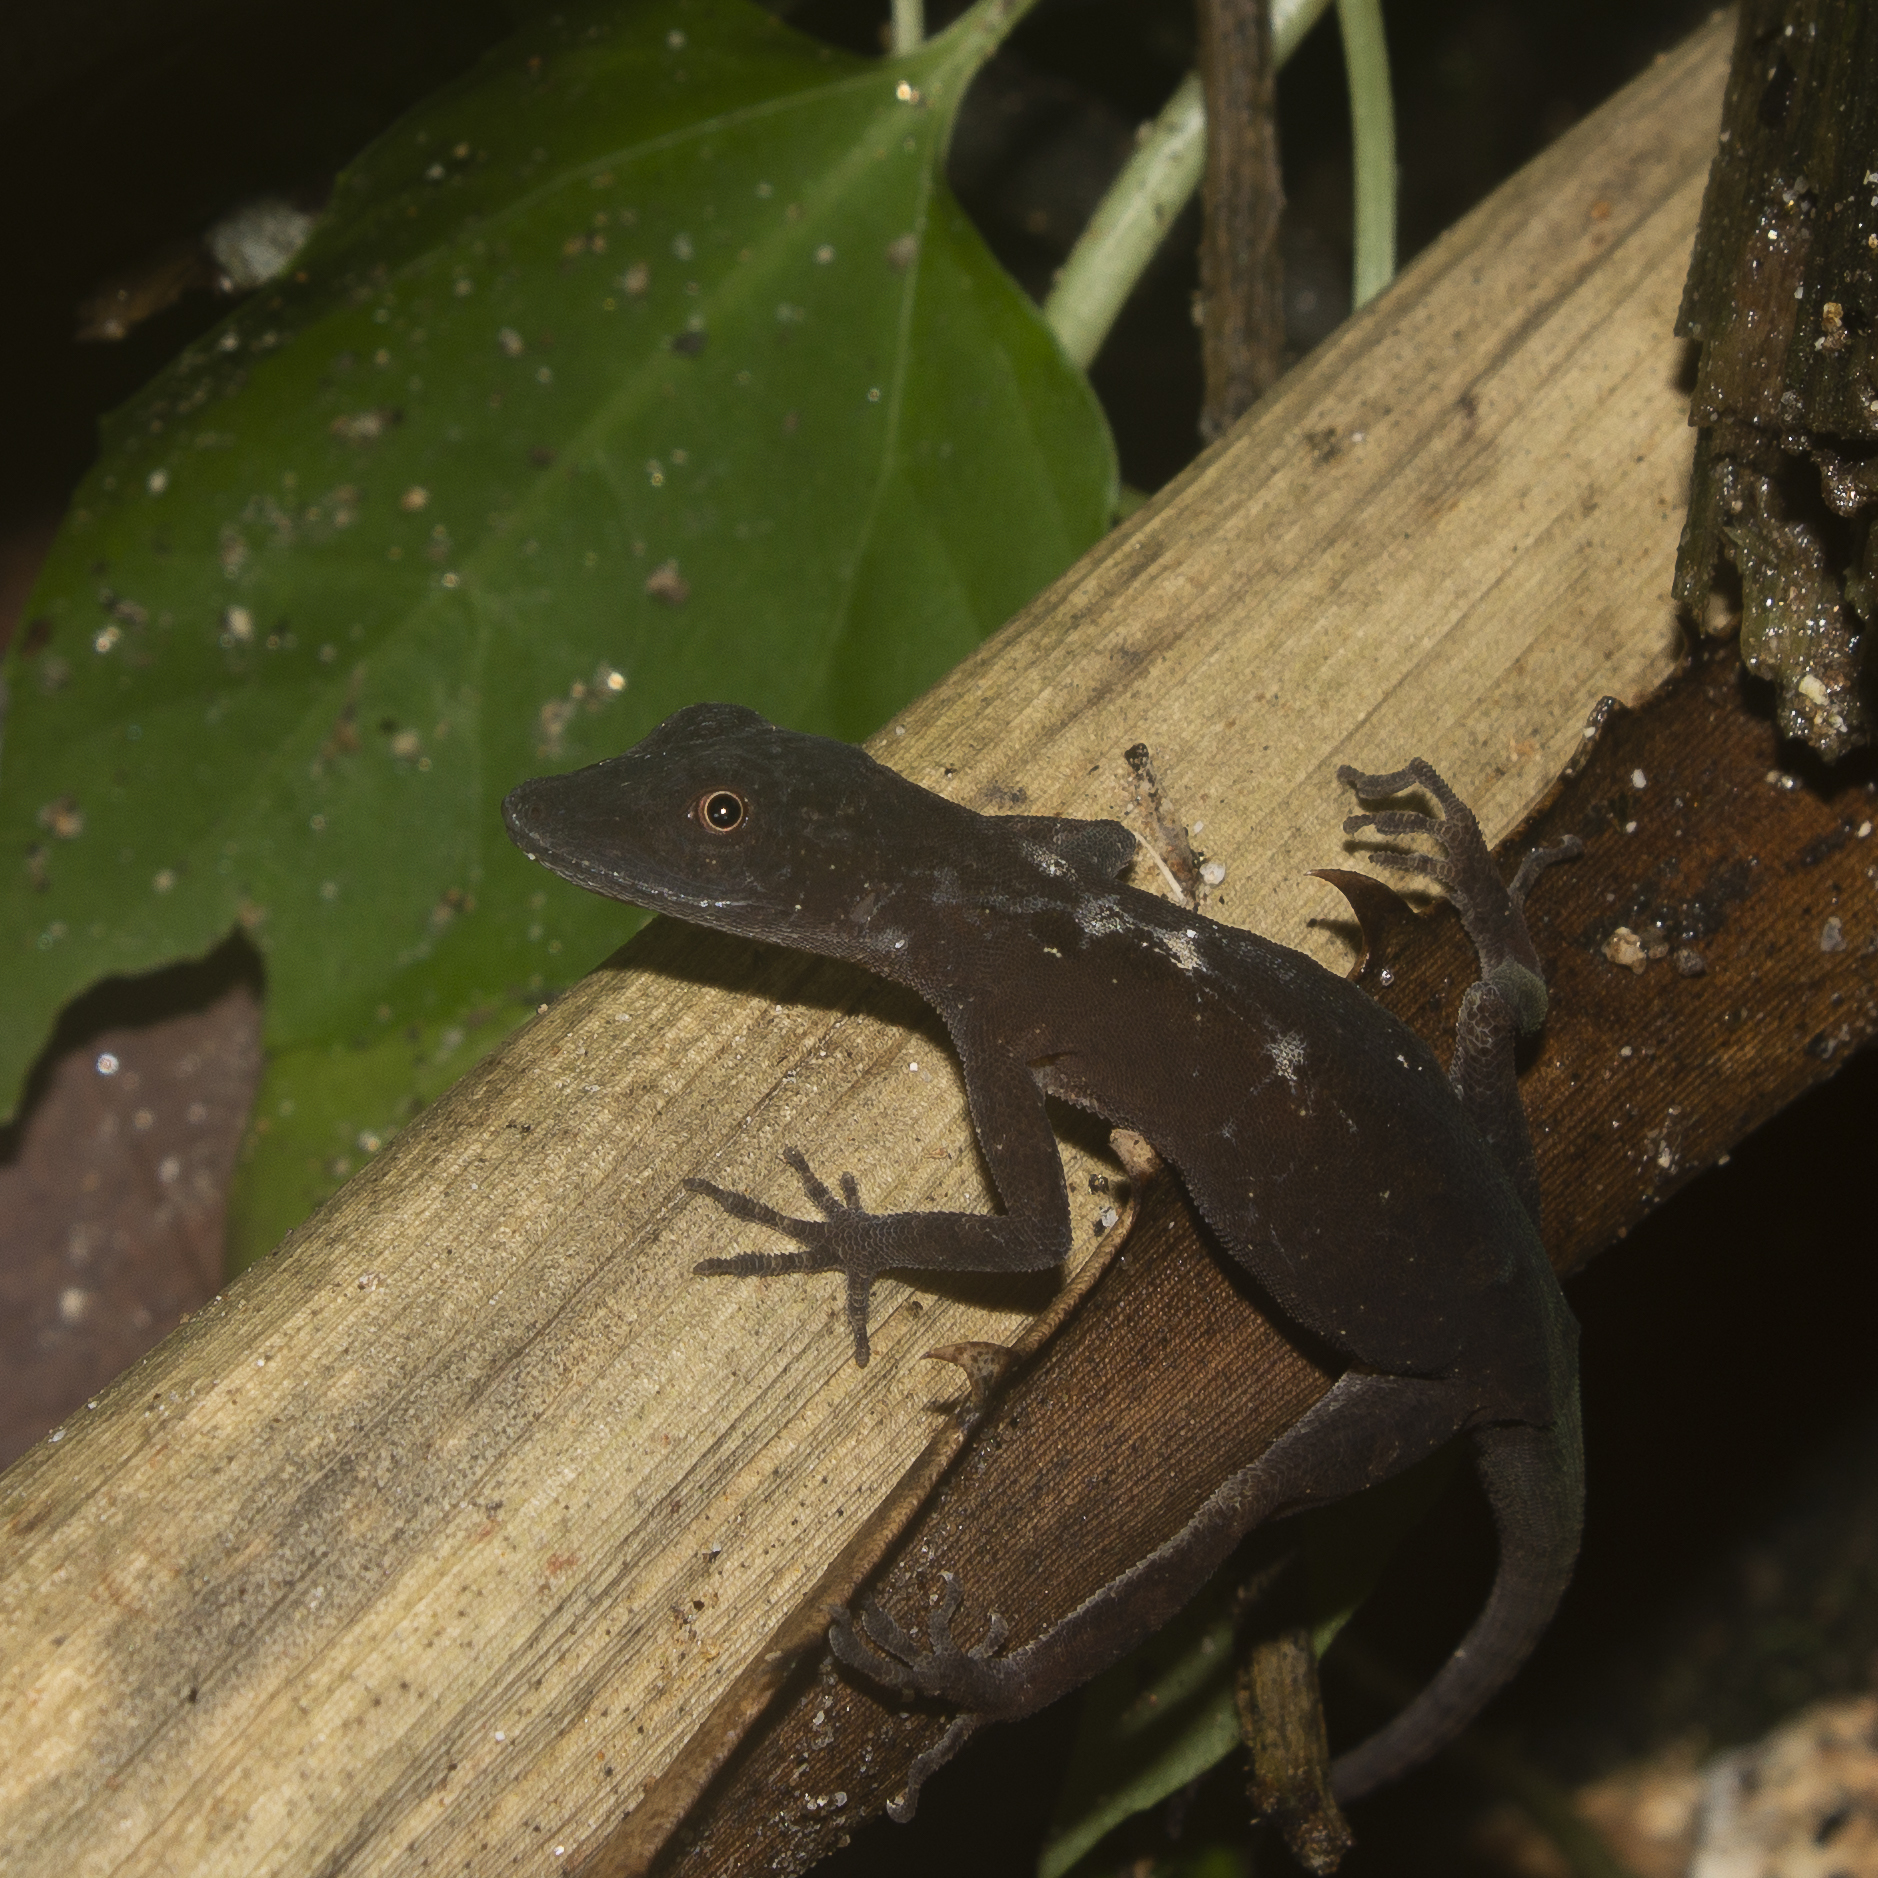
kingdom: Animalia
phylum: Chordata
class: Squamata
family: Dactyloidae
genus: Anolis
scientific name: Anolis gaigei
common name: Gaige’s anole
